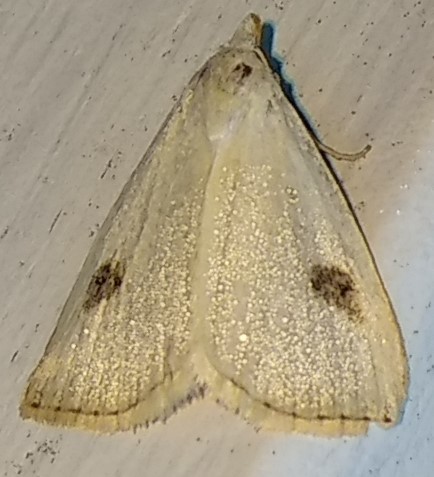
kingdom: Animalia
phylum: Arthropoda
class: Insecta
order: Lepidoptera
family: Erebidae
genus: Rivula
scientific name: Rivula propinqualis
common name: Spotted grass moth
